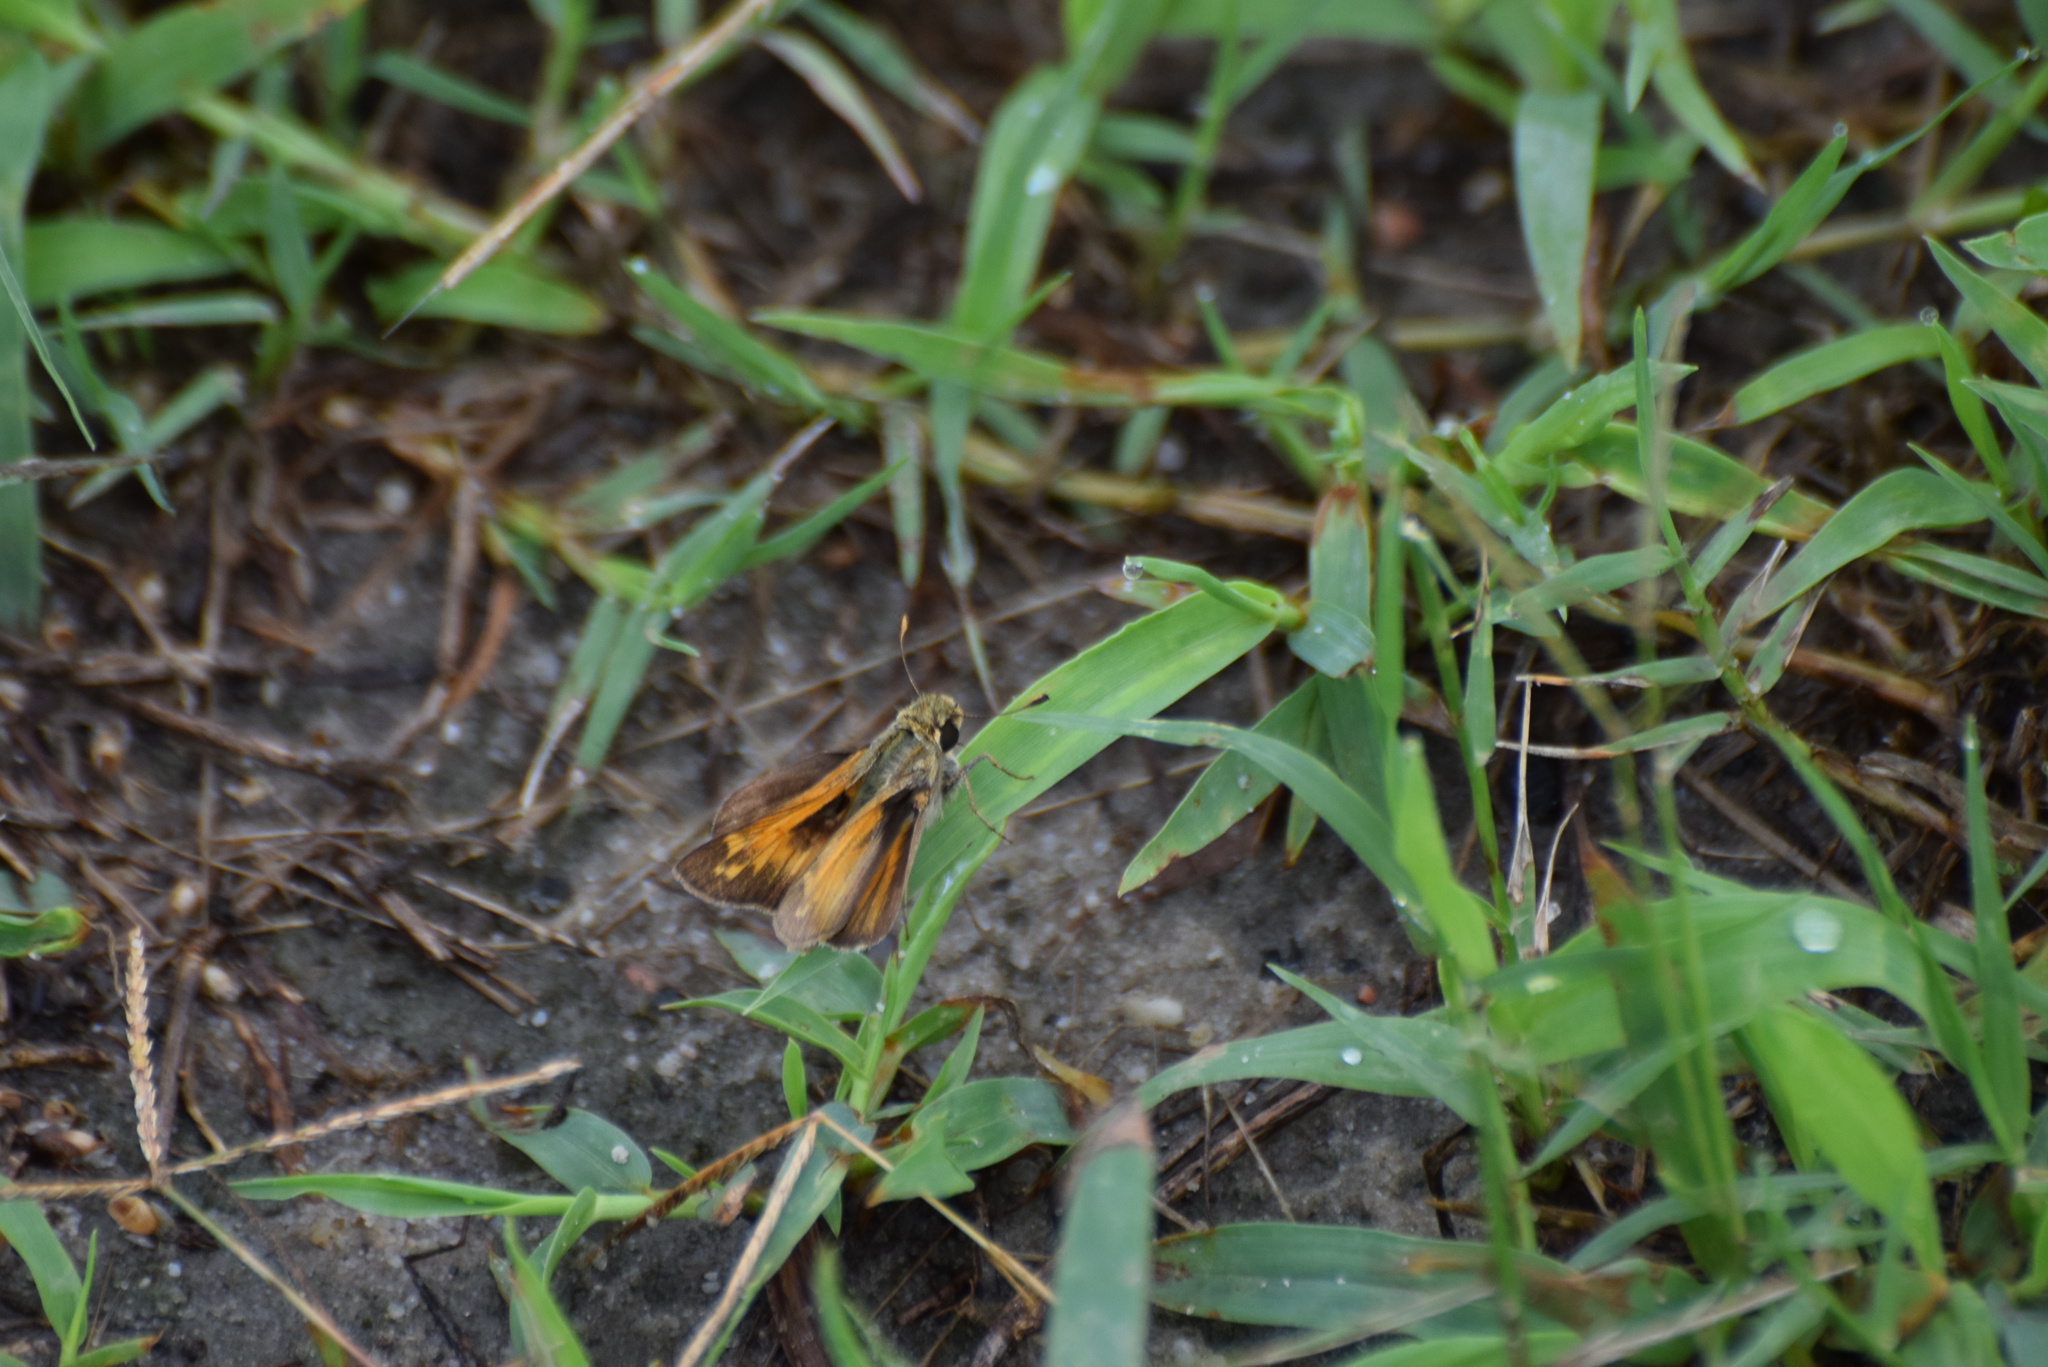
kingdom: Animalia
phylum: Arthropoda
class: Insecta
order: Lepidoptera
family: Hesperiidae
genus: Atalopedes
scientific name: Atalopedes
